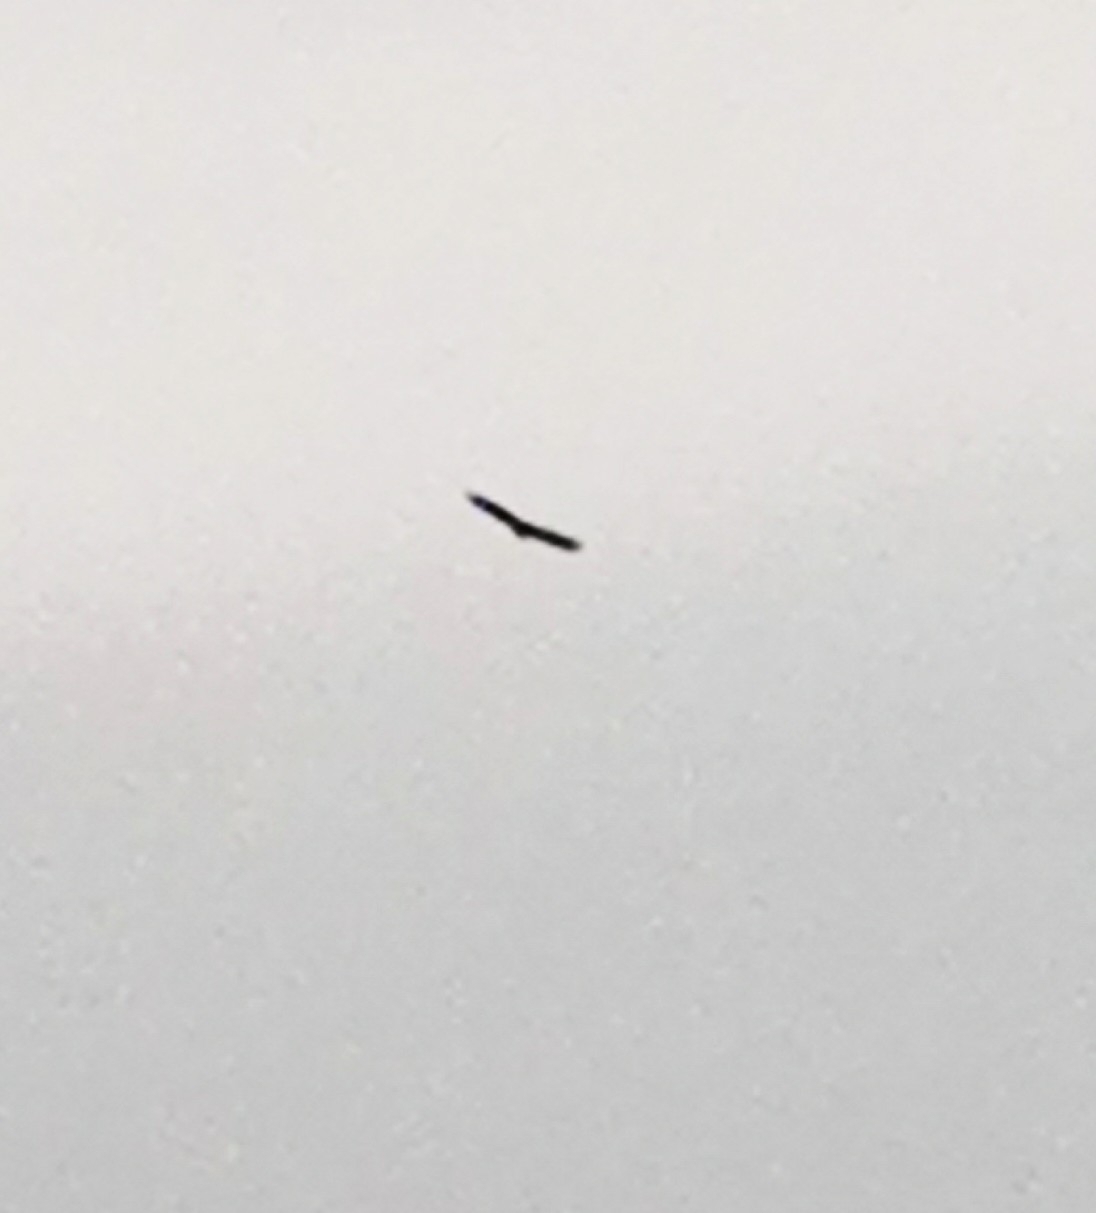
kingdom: Animalia
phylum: Chordata
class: Aves
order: Accipitriformes
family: Accipitridae
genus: Haliaeetus
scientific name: Haliaeetus albicilla
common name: White-tailed eagle
